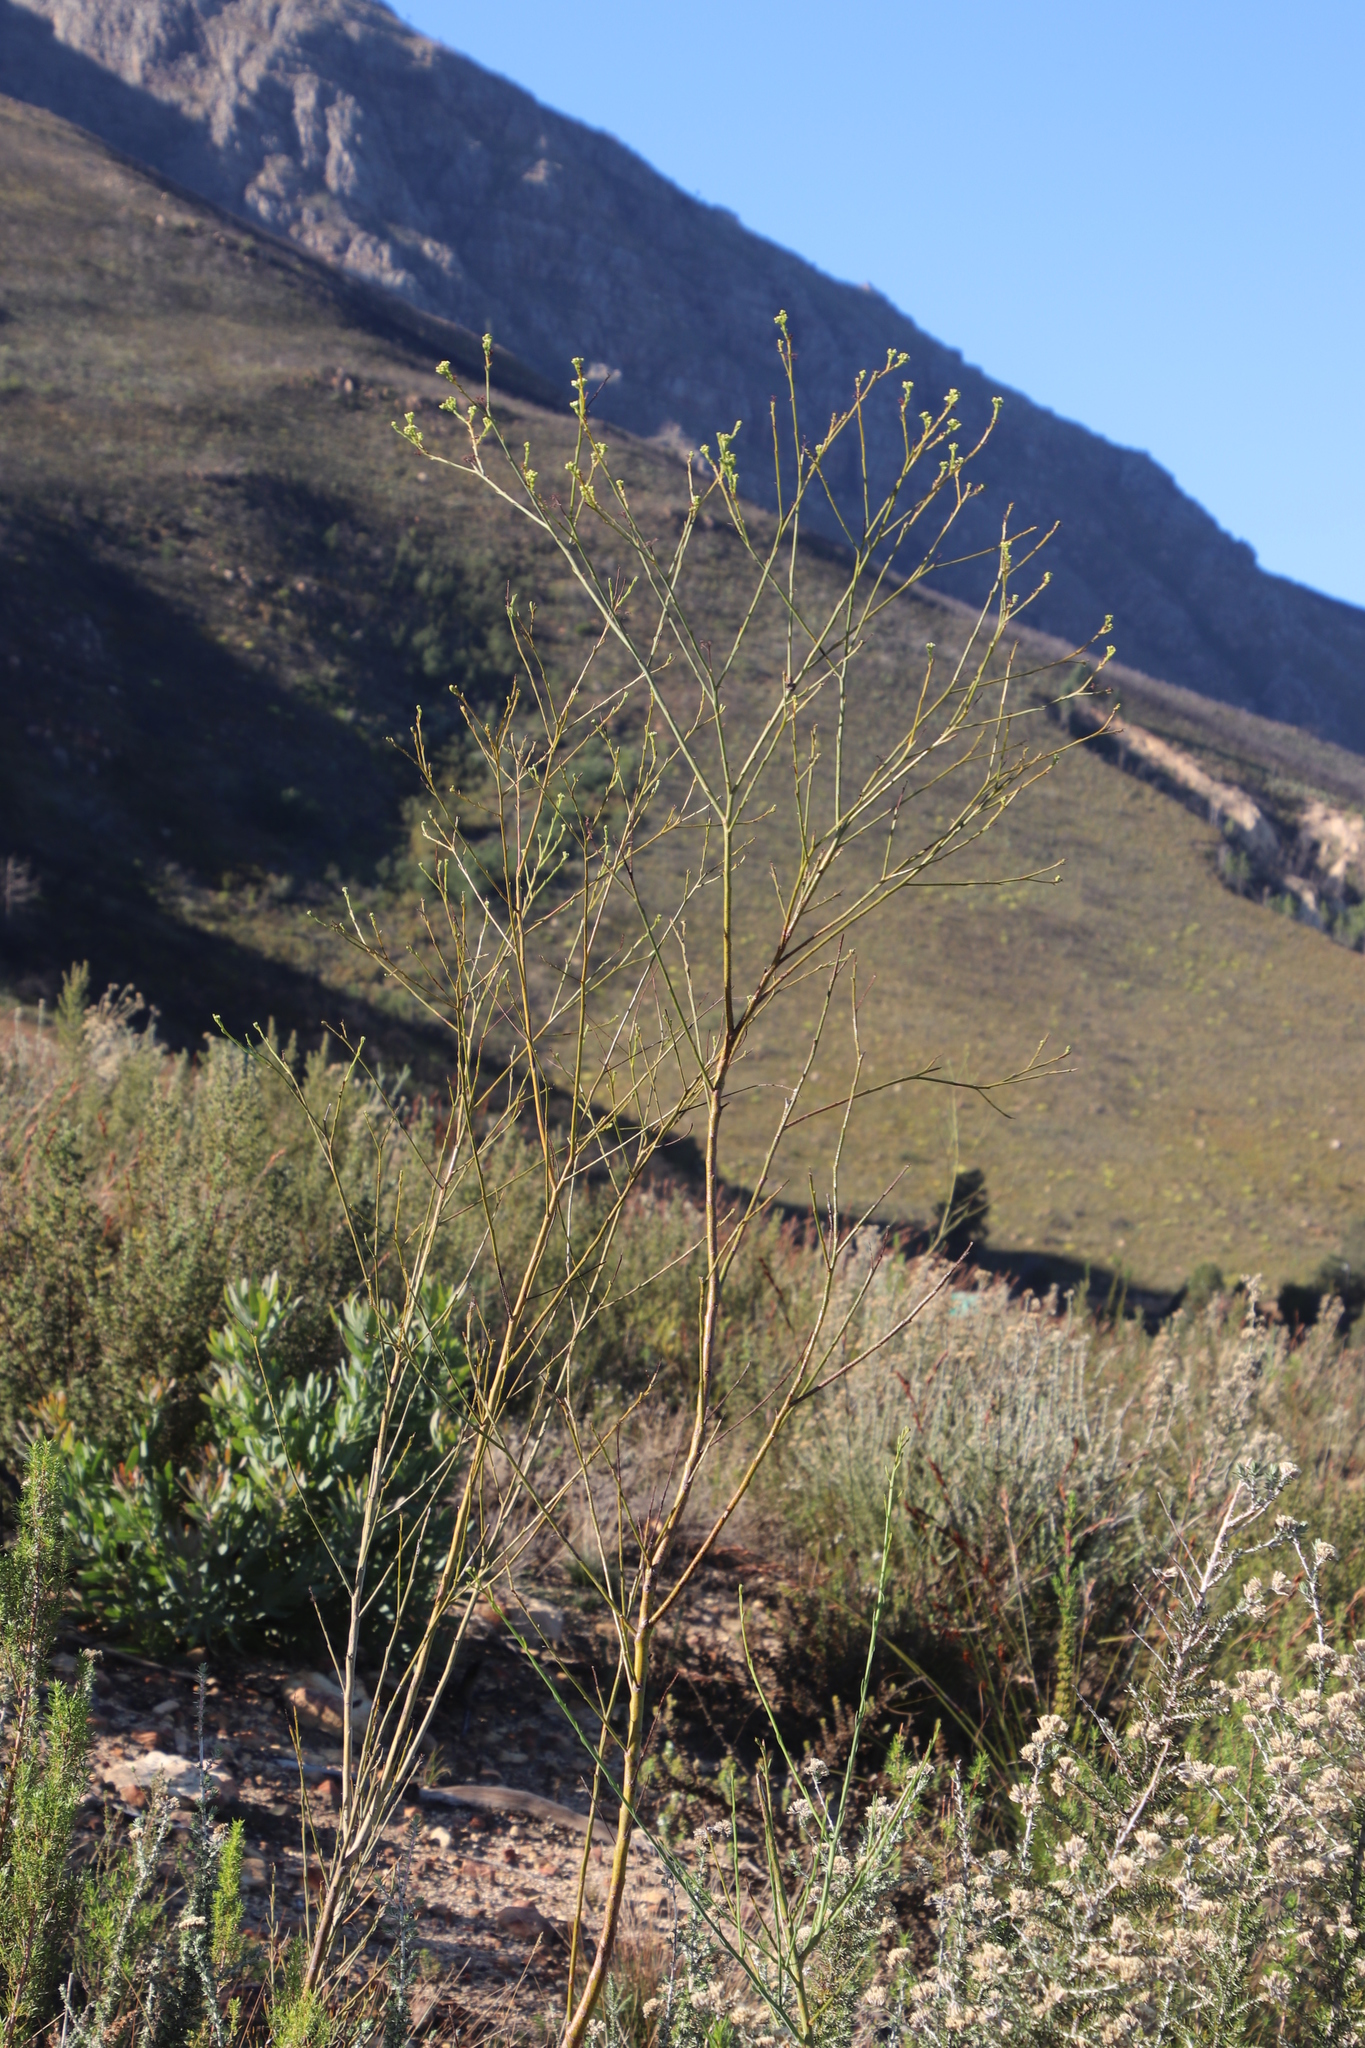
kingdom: Plantae
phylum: Tracheophyta
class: Magnoliopsida
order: Santalales
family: Thesiaceae
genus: Thesium
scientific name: Thesium strictum
